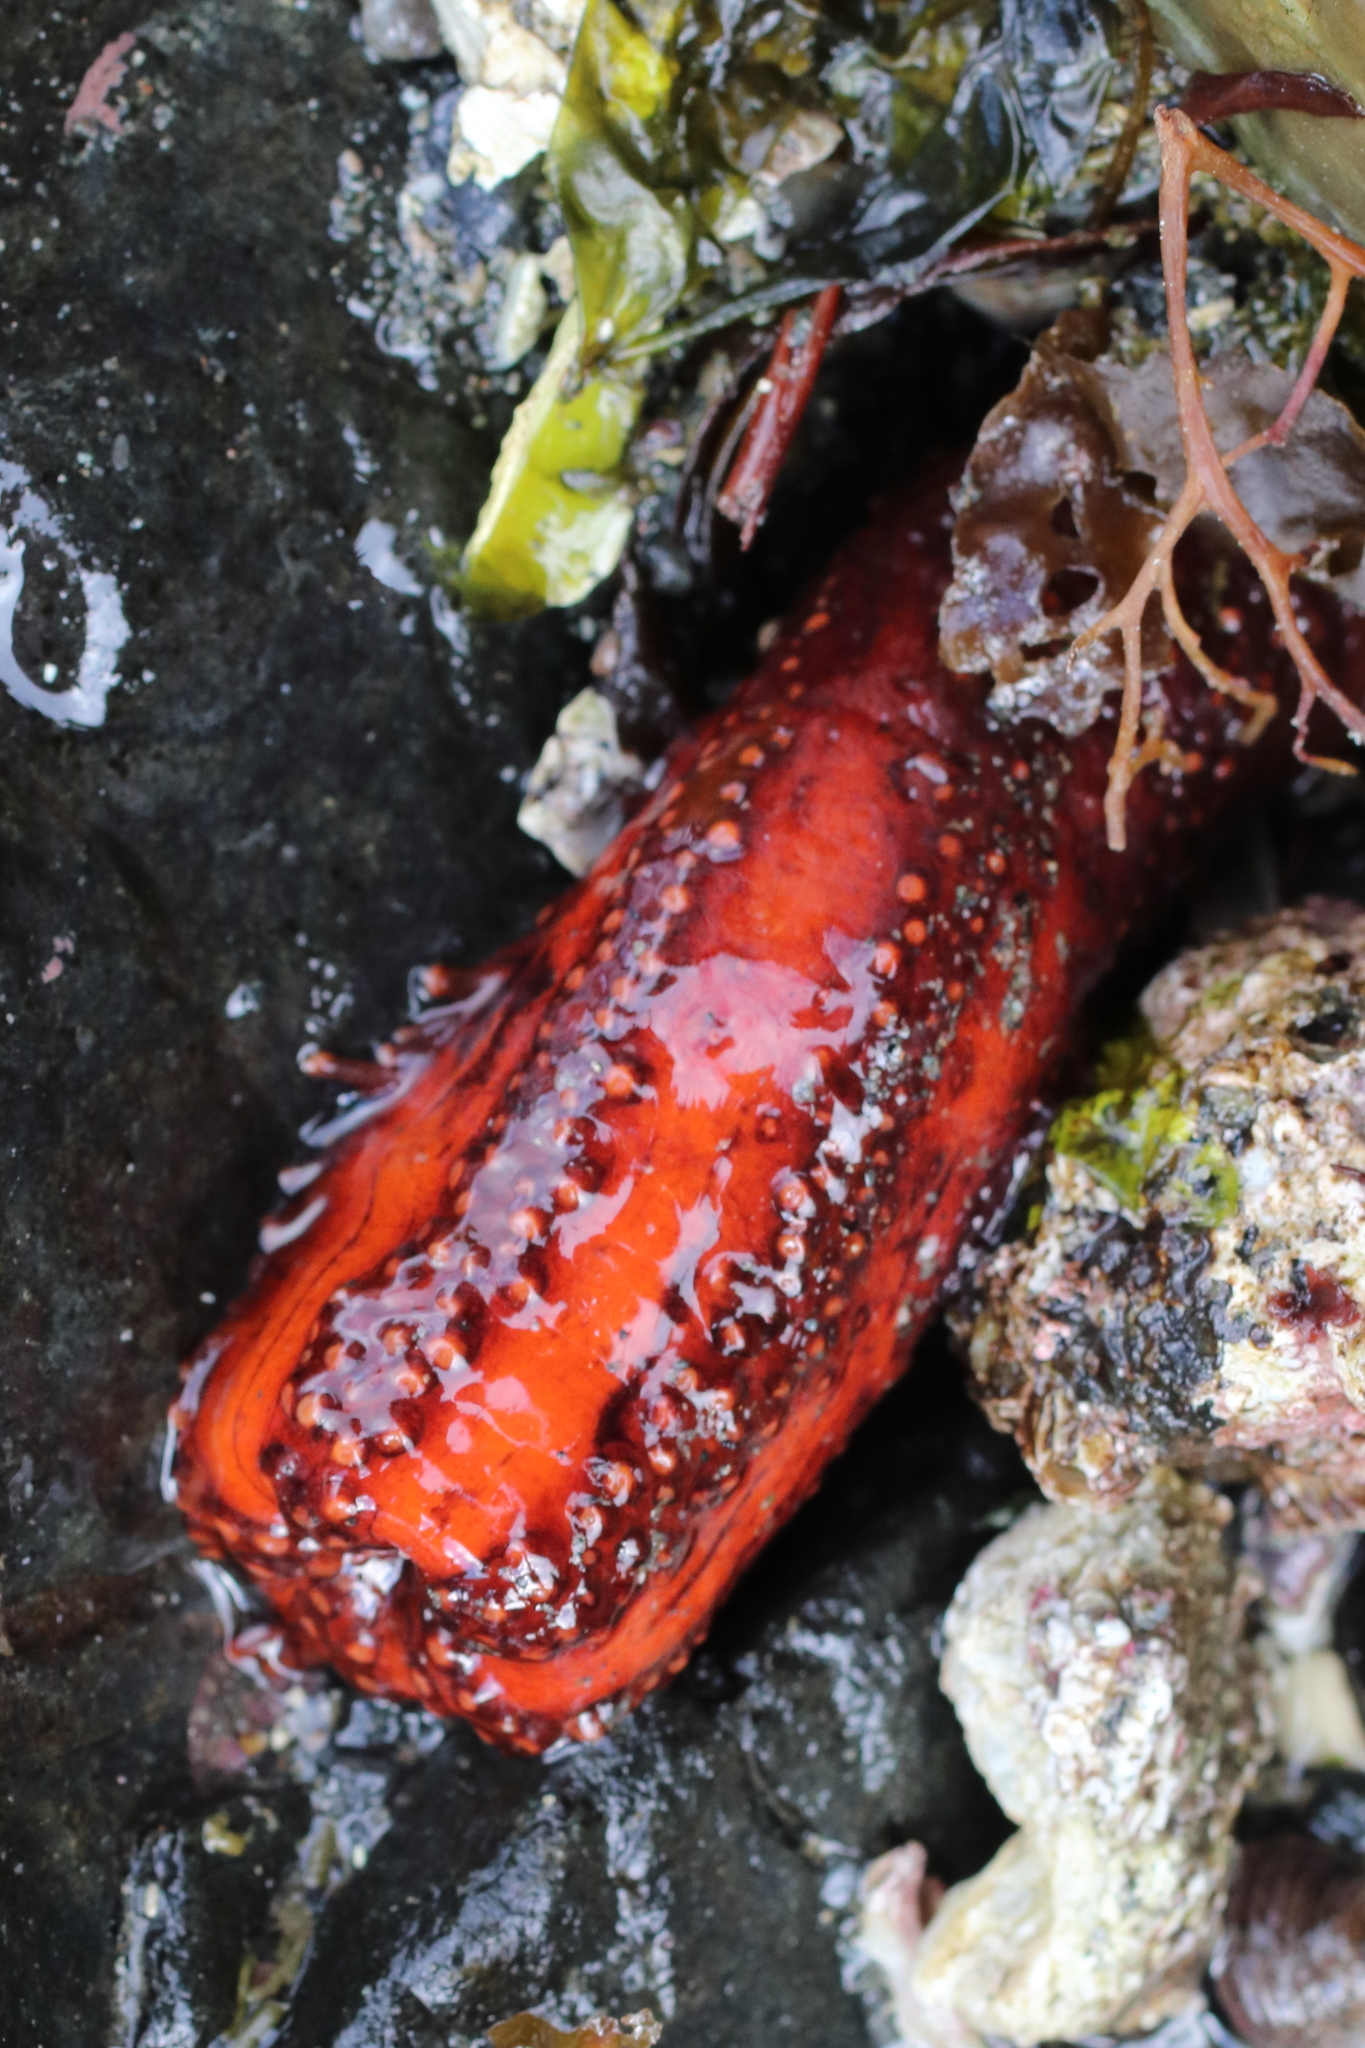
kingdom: Animalia
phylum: Echinodermata
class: Holothuroidea
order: Dendrochirotida
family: Cucumariidae
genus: Cucumaria
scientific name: Cucumaria miniata
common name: Orange sea cucumber
